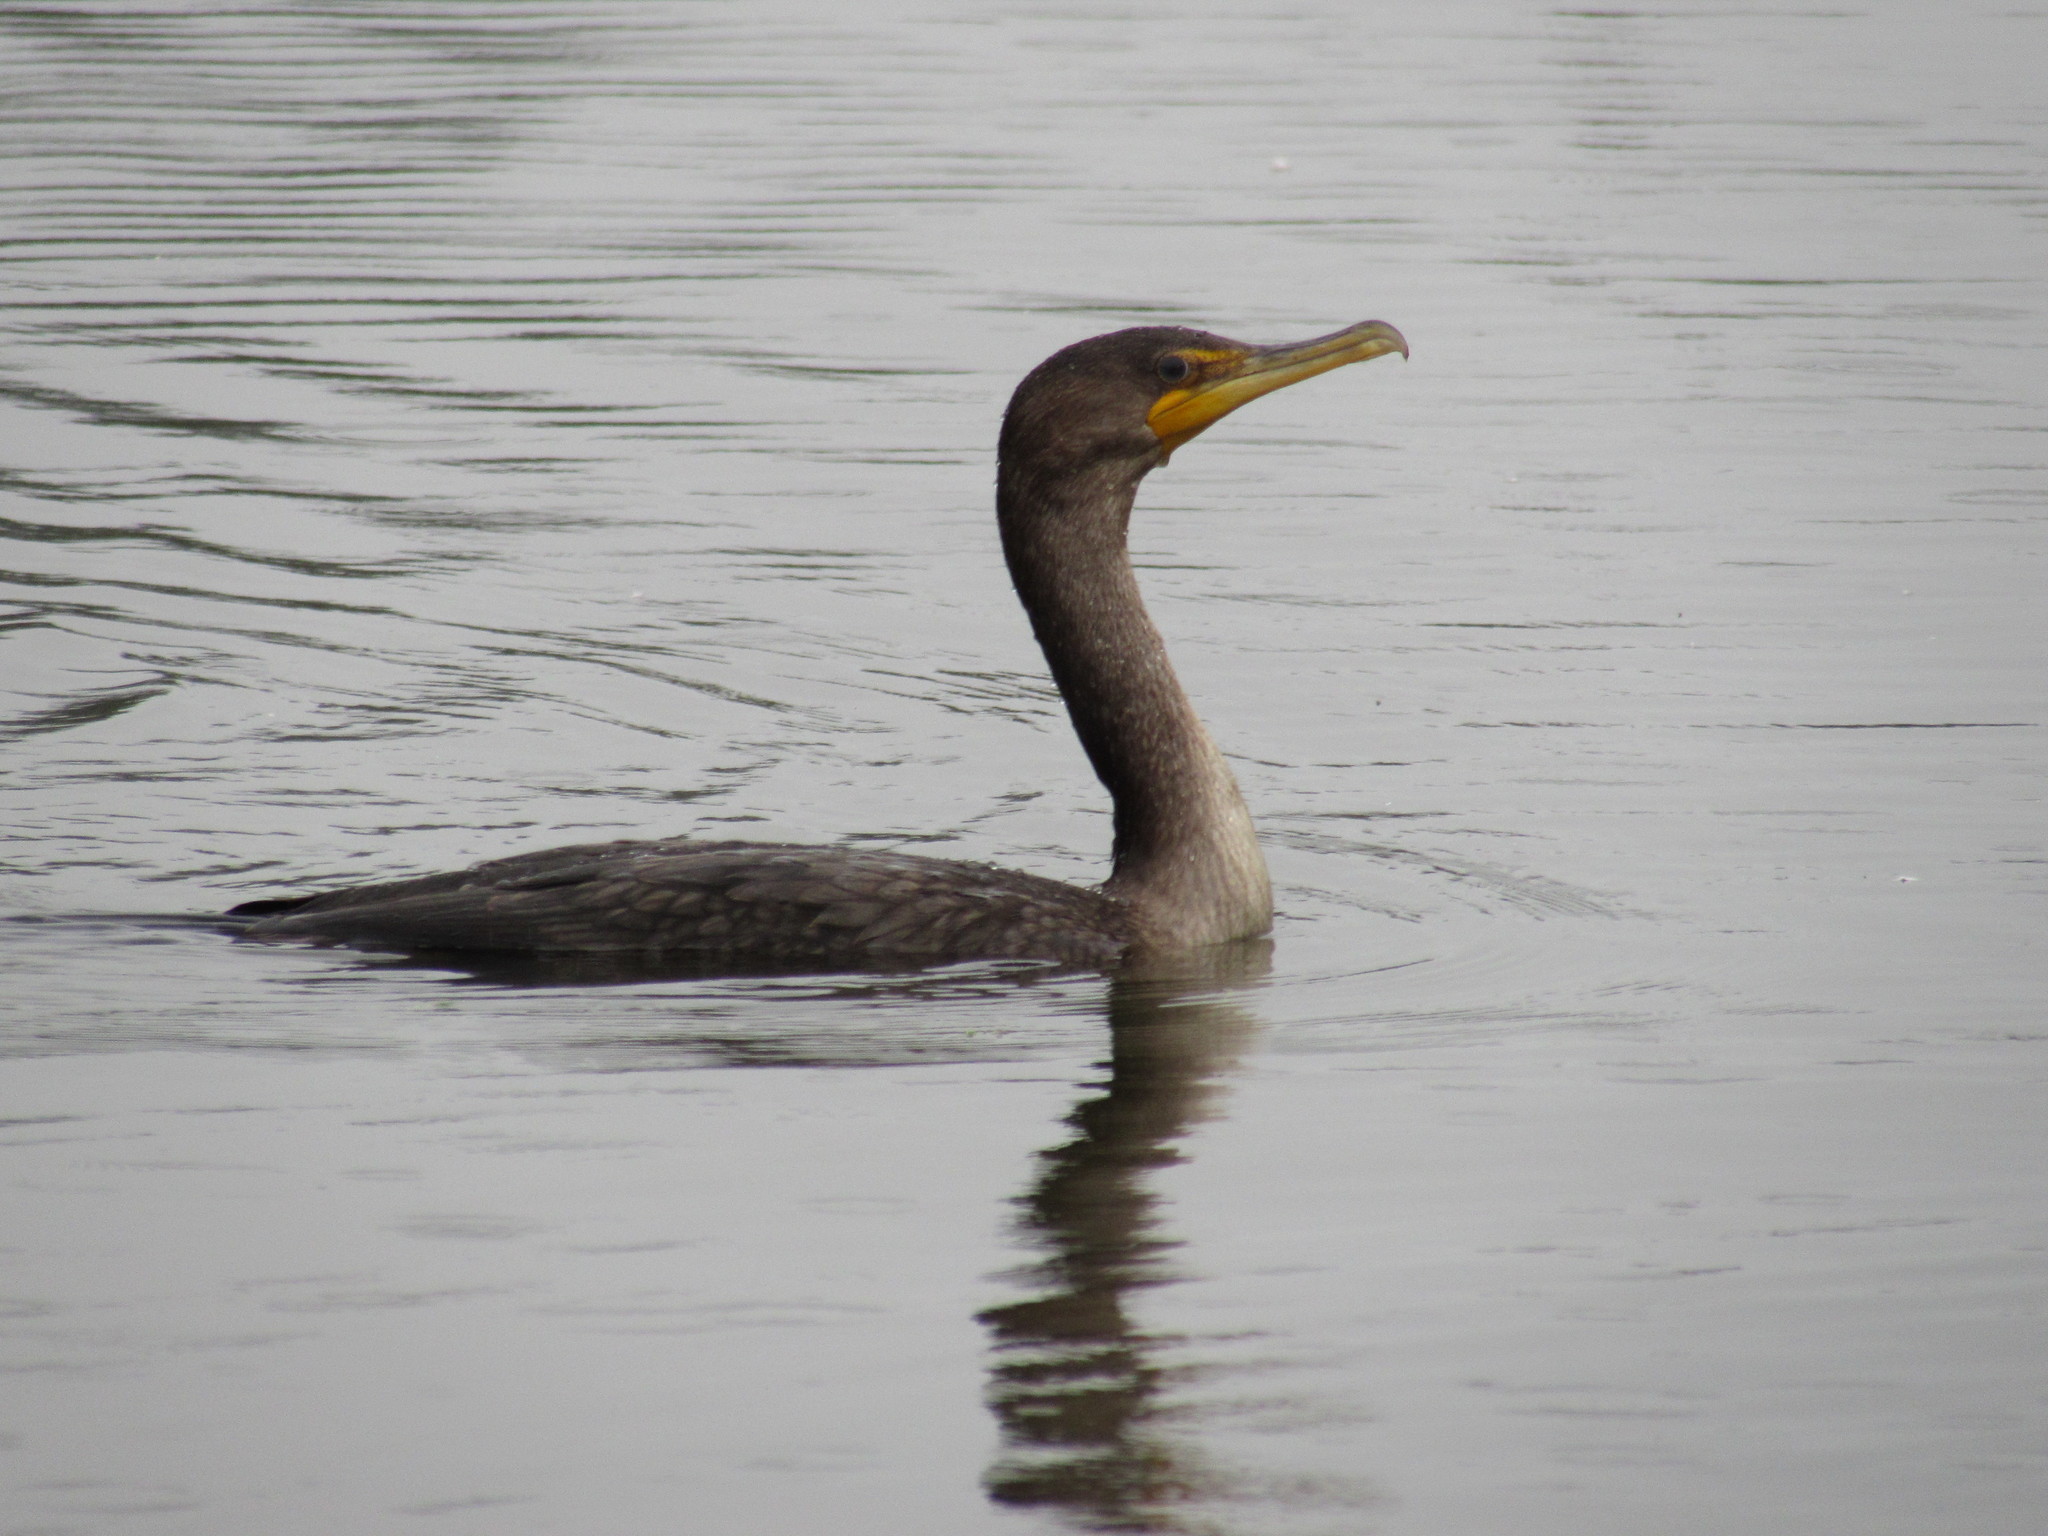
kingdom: Animalia
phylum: Chordata
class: Aves
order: Suliformes
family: Phalacrocoracidae
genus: Phalacrocorax
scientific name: Phalacrocorax auritus
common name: Double-crested cormorant
